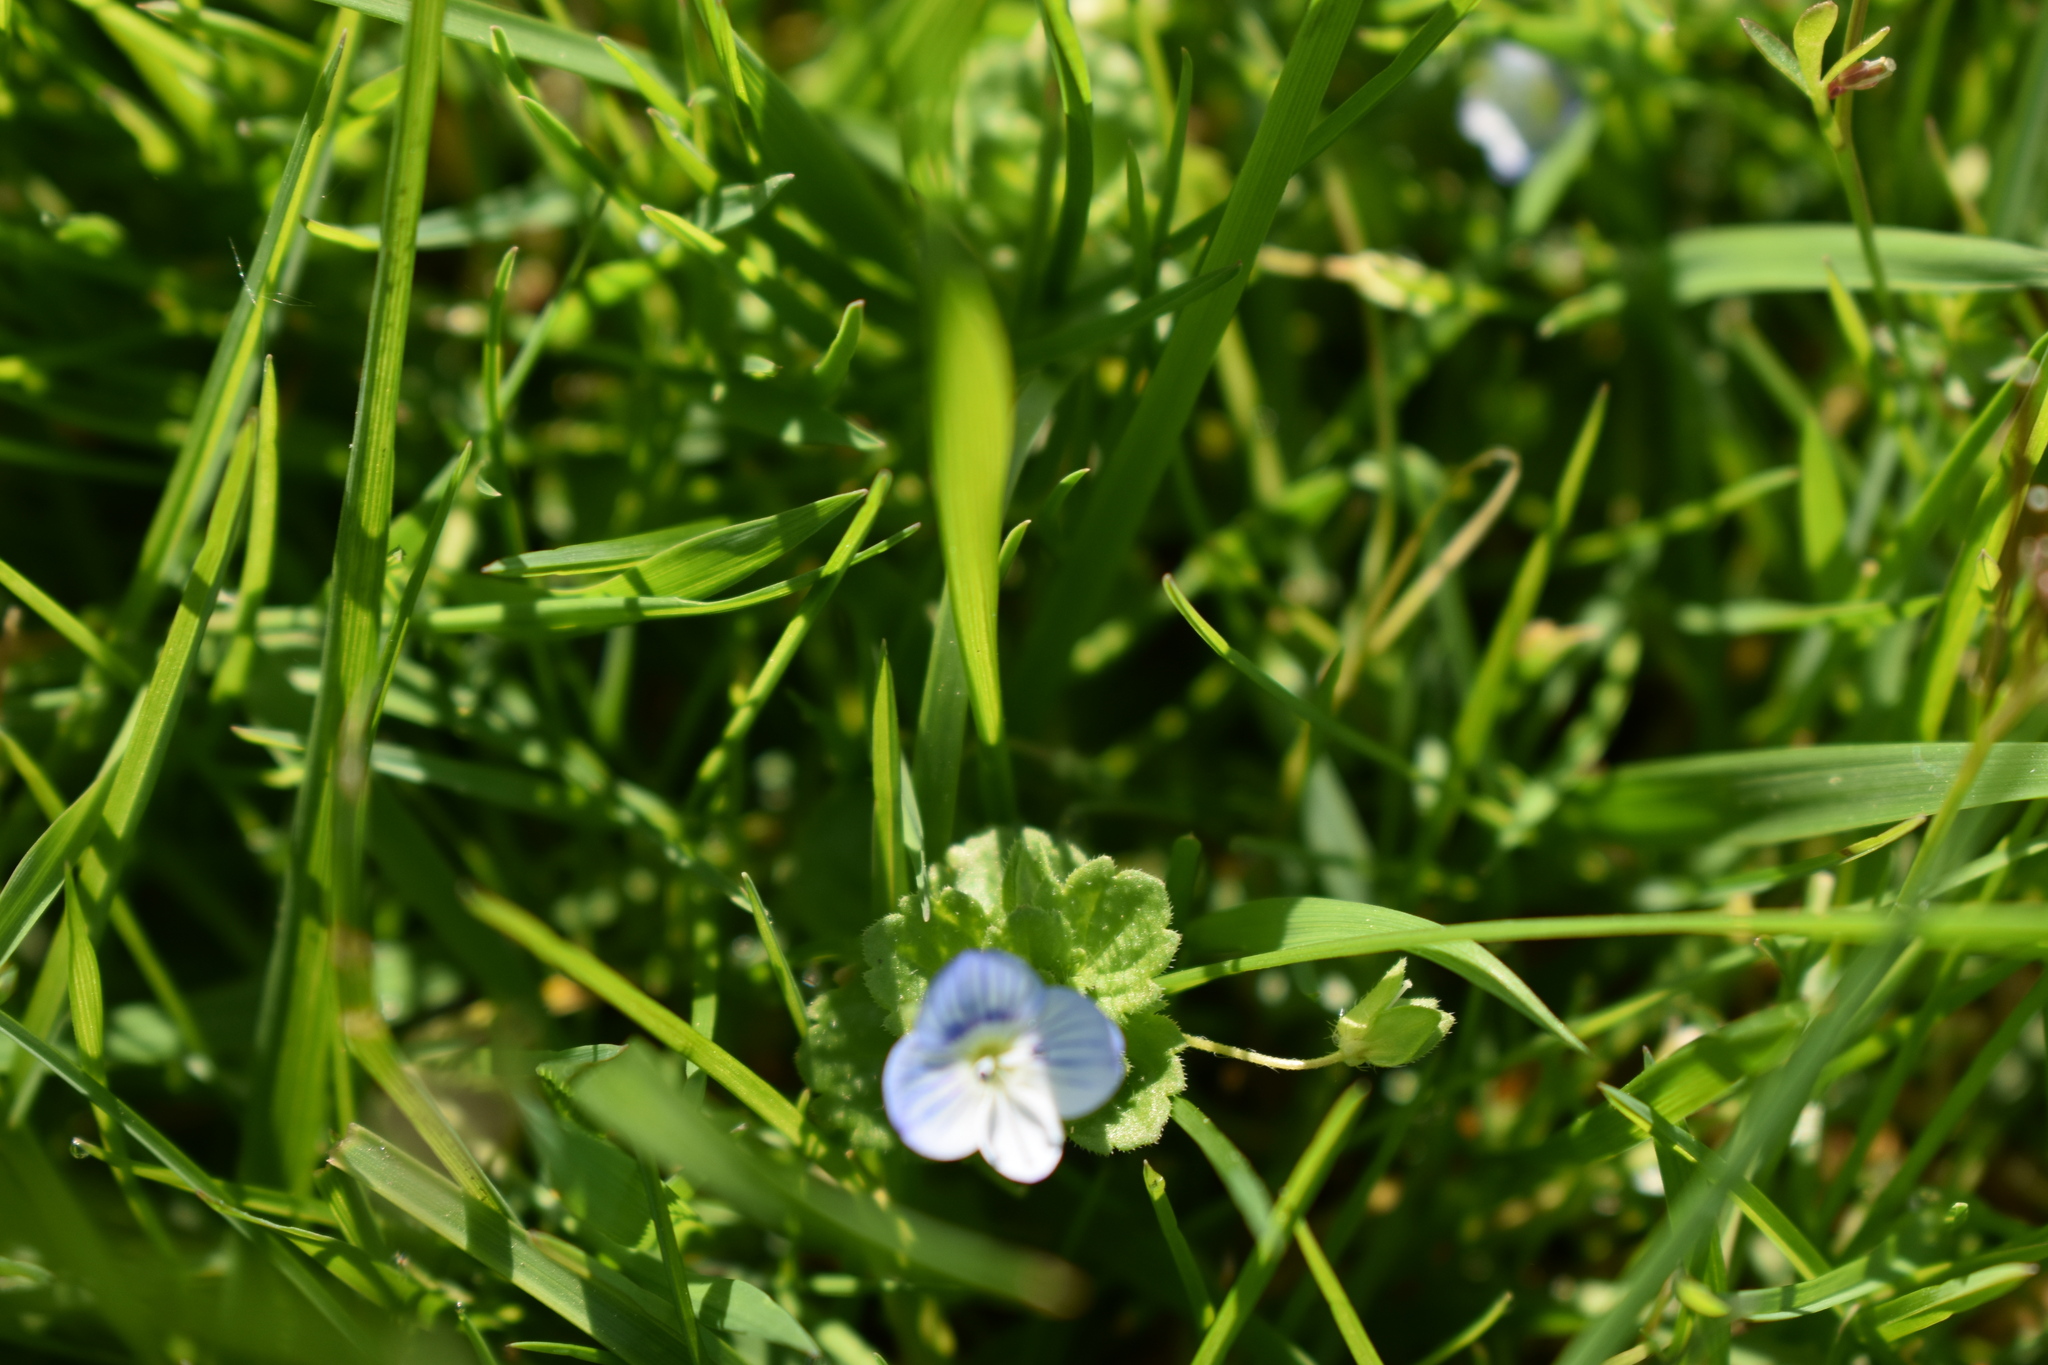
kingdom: Plantae
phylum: Tracheophyta
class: Magnoliopsida
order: Lamiales
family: Plantaginaceae
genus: Veronica
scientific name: Veronica persica
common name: Common field-speedwell
